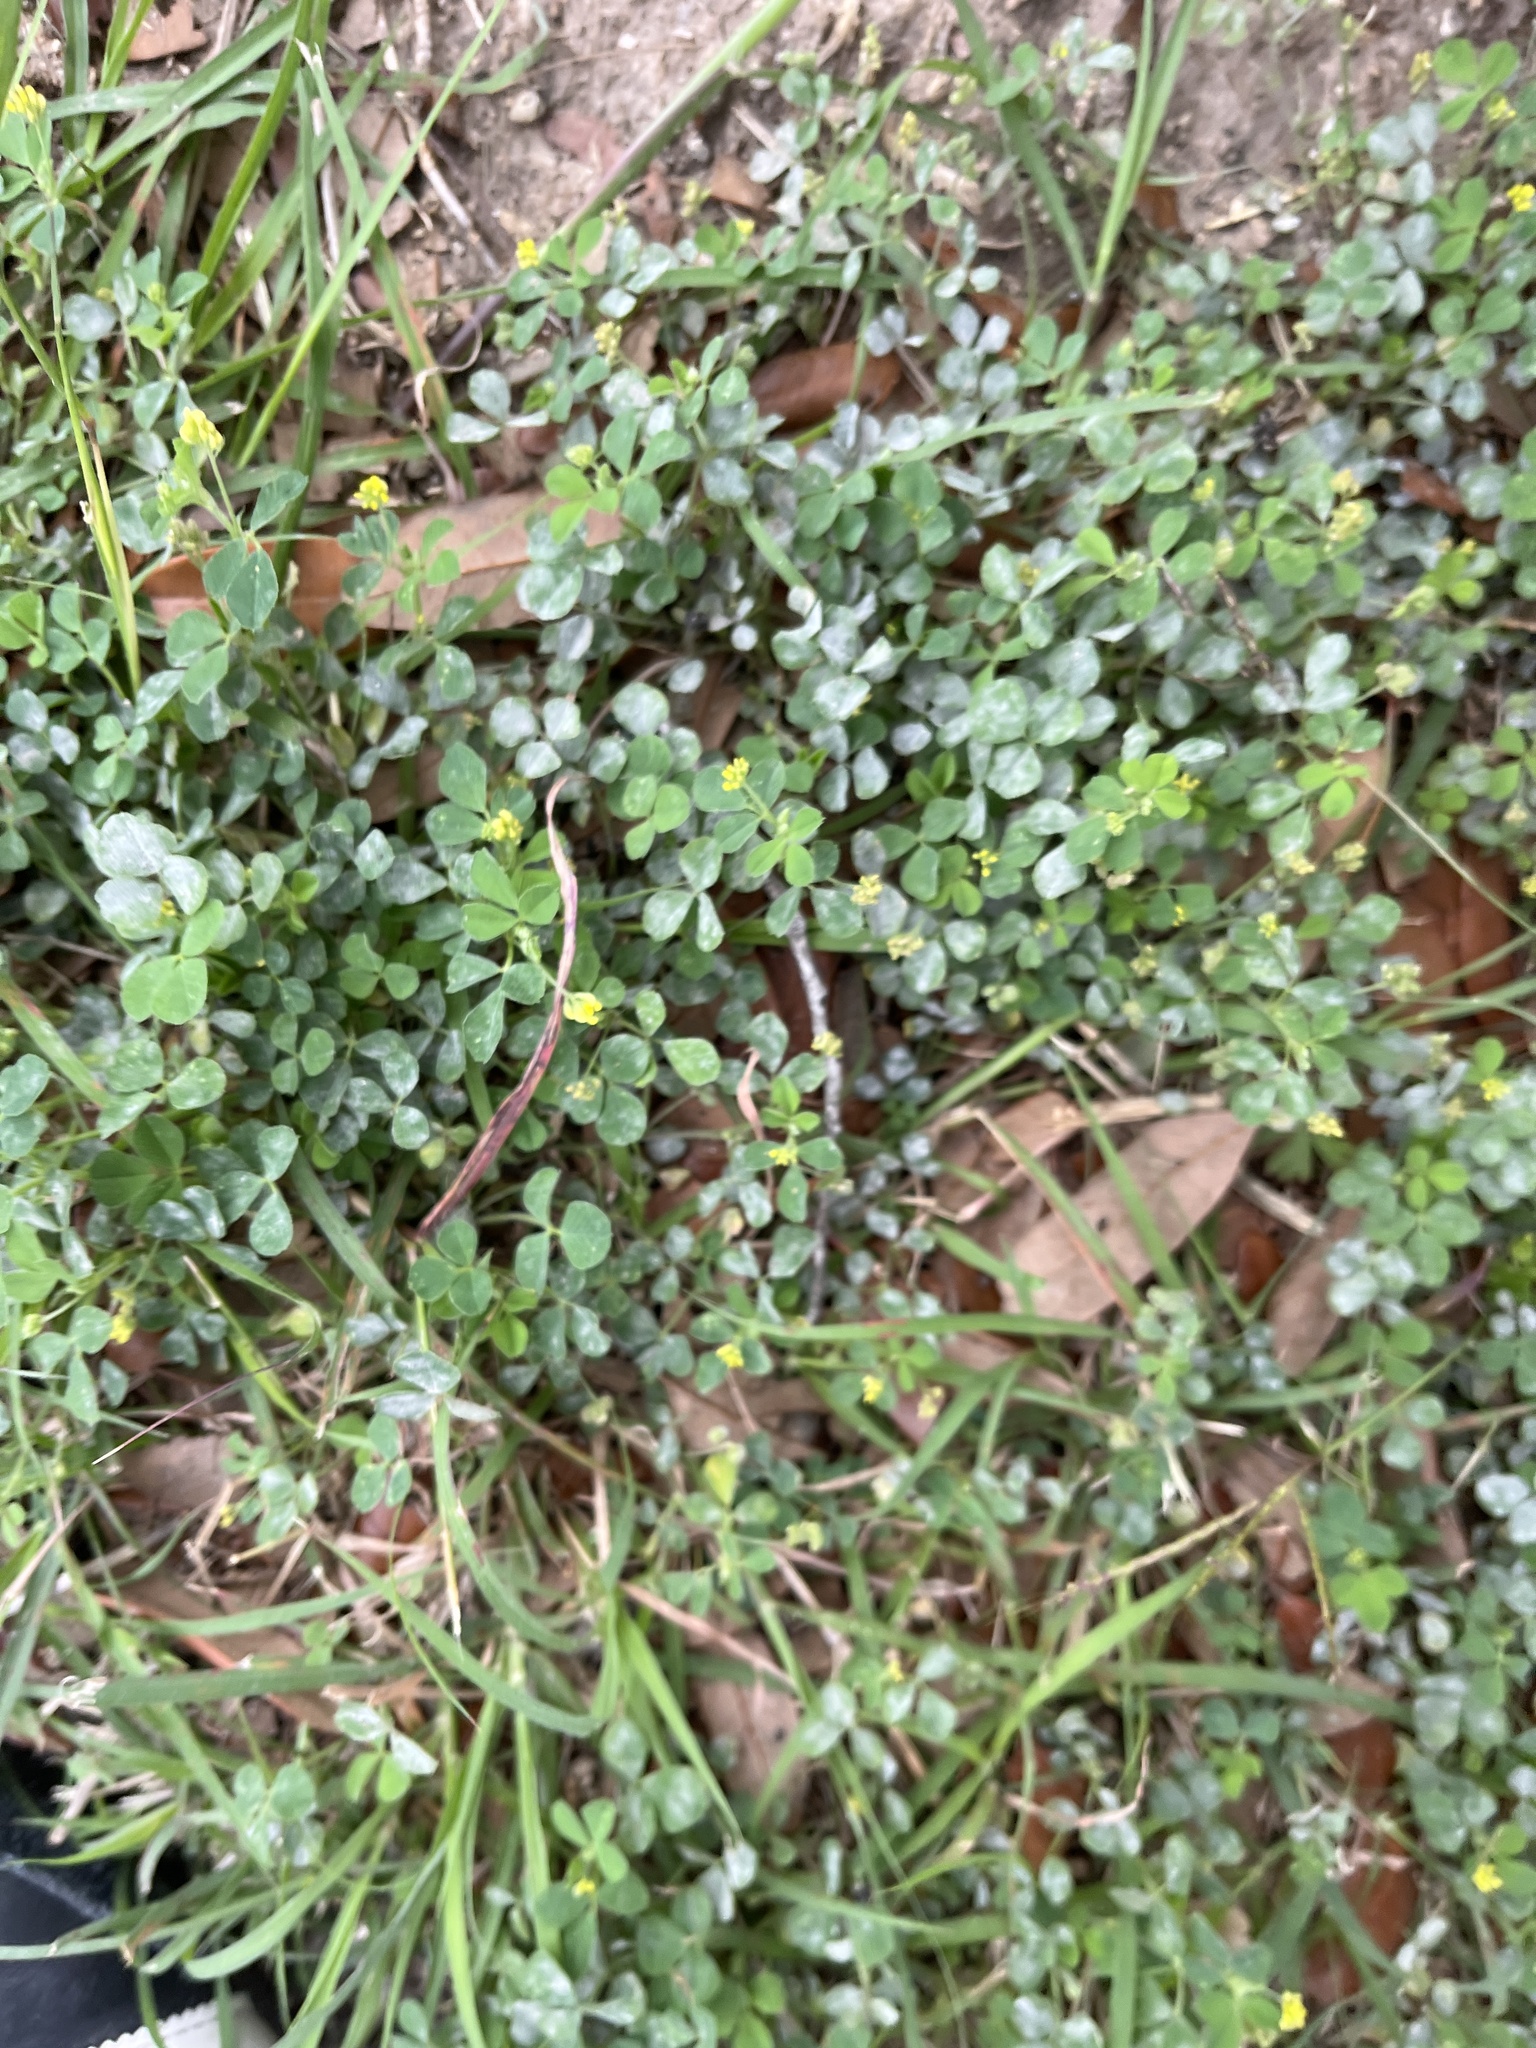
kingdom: Plantae
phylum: Tracheophyta
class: Magnoliopsida
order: Fabales
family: Fabaceae
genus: Medicago
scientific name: Medicago lupulina
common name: Black medick
